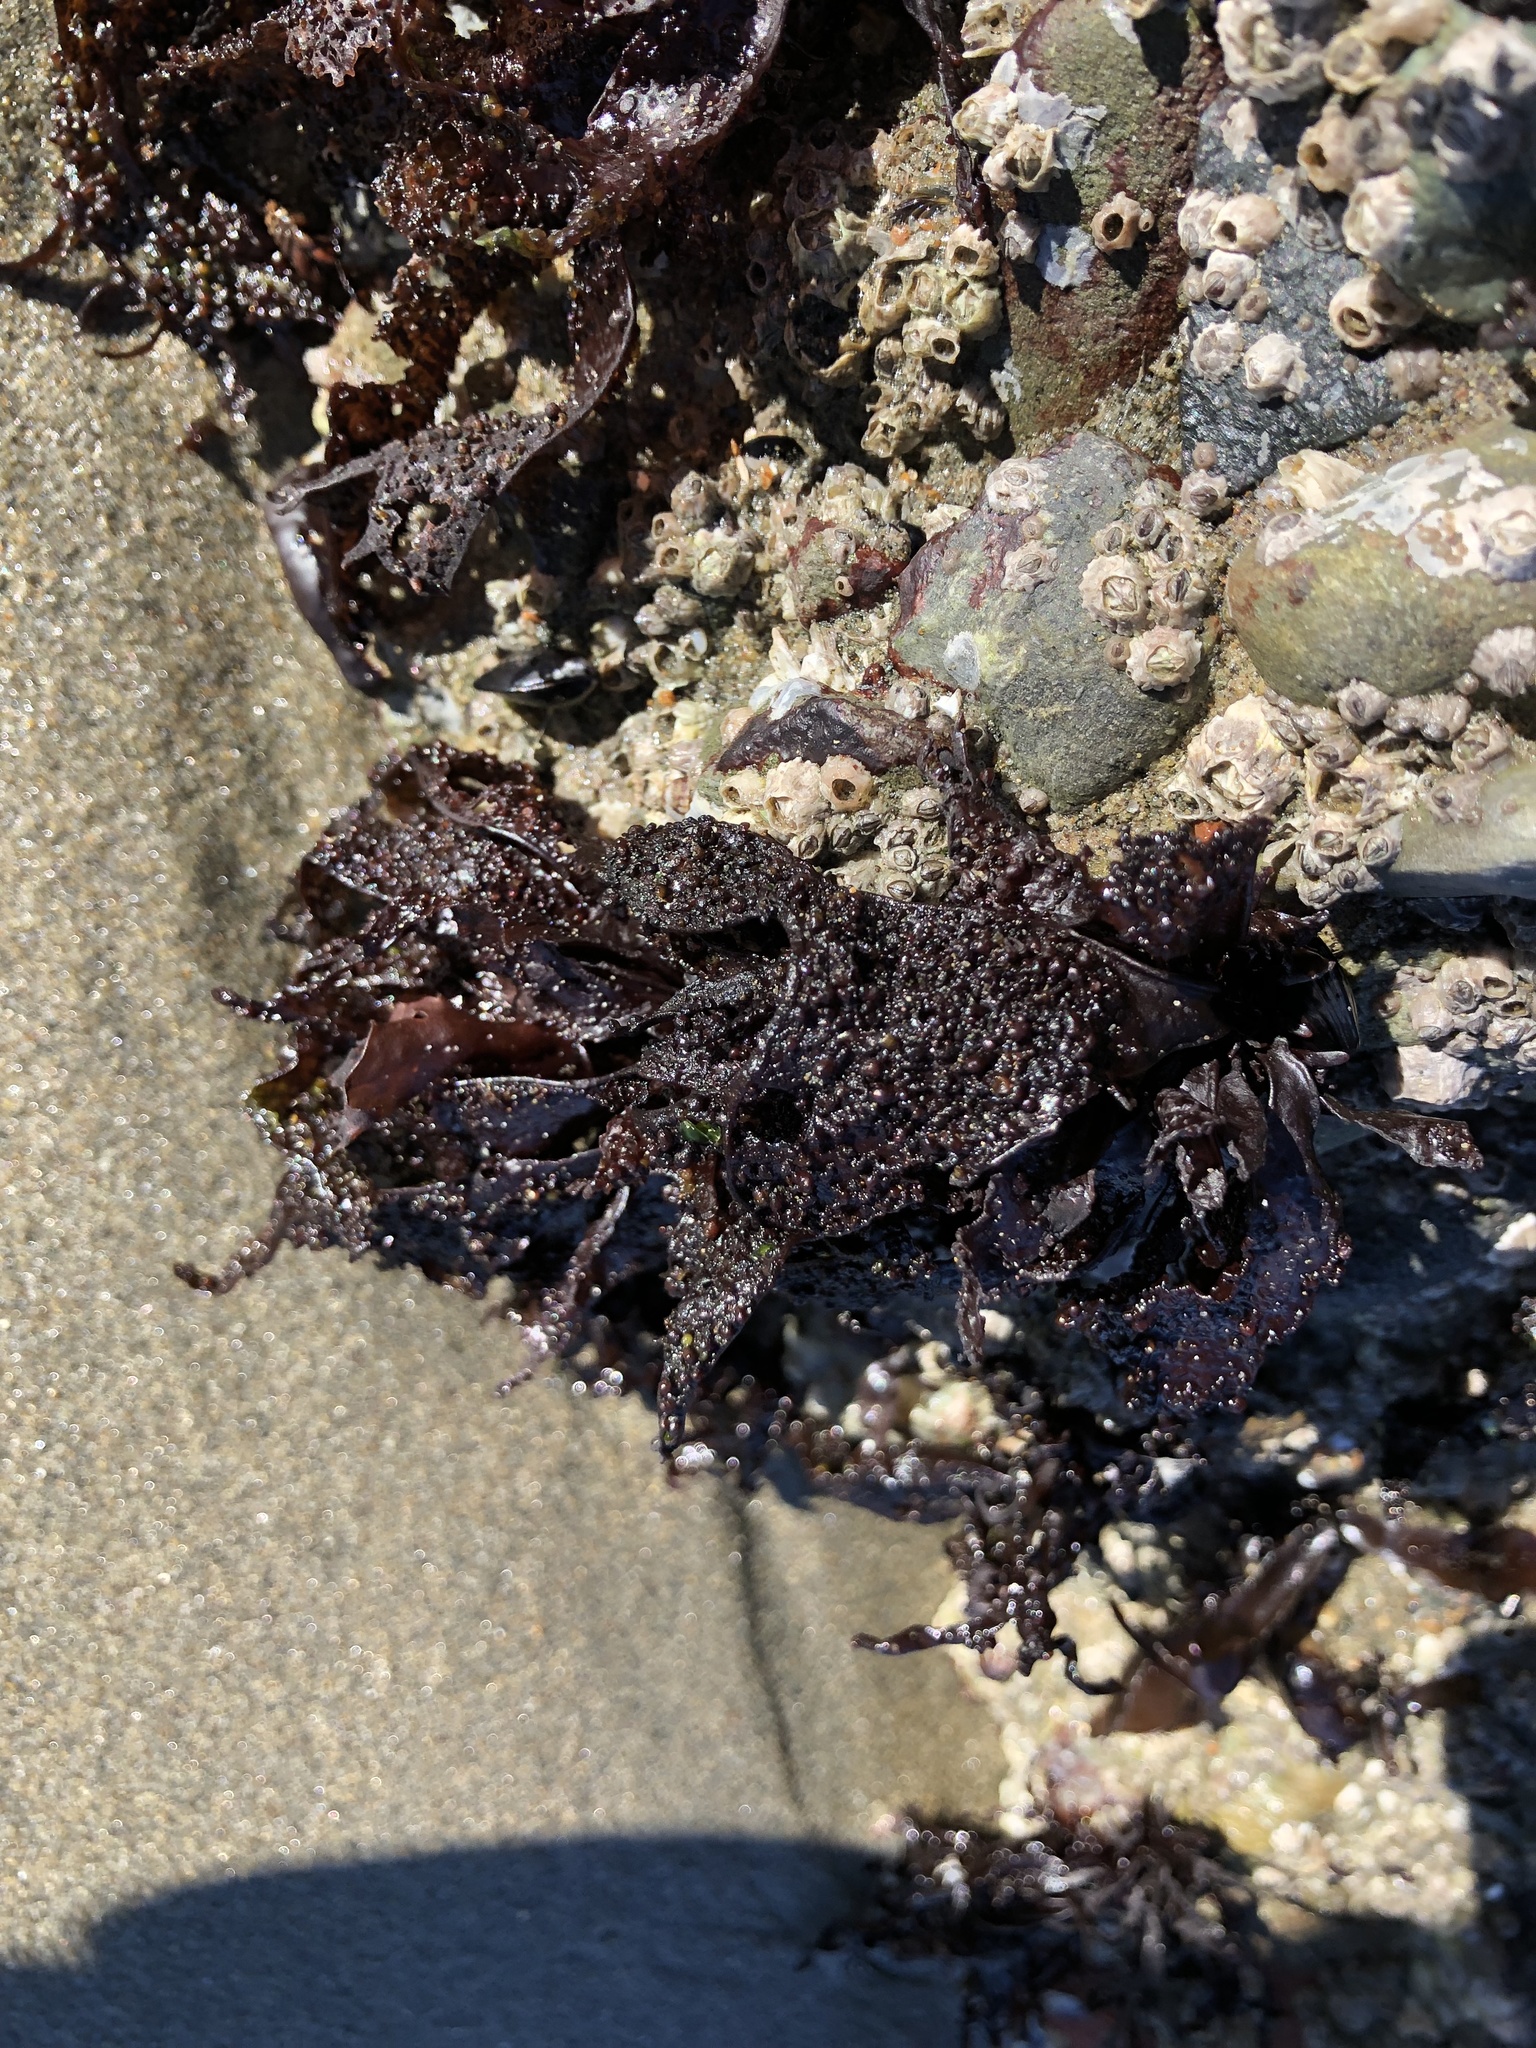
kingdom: Plantae
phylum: Rhodophyta
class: Florideophyceae
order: Gigartinales
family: Phyllophoraceae
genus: Mastocarpus
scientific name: Mastocarpus papillatus
